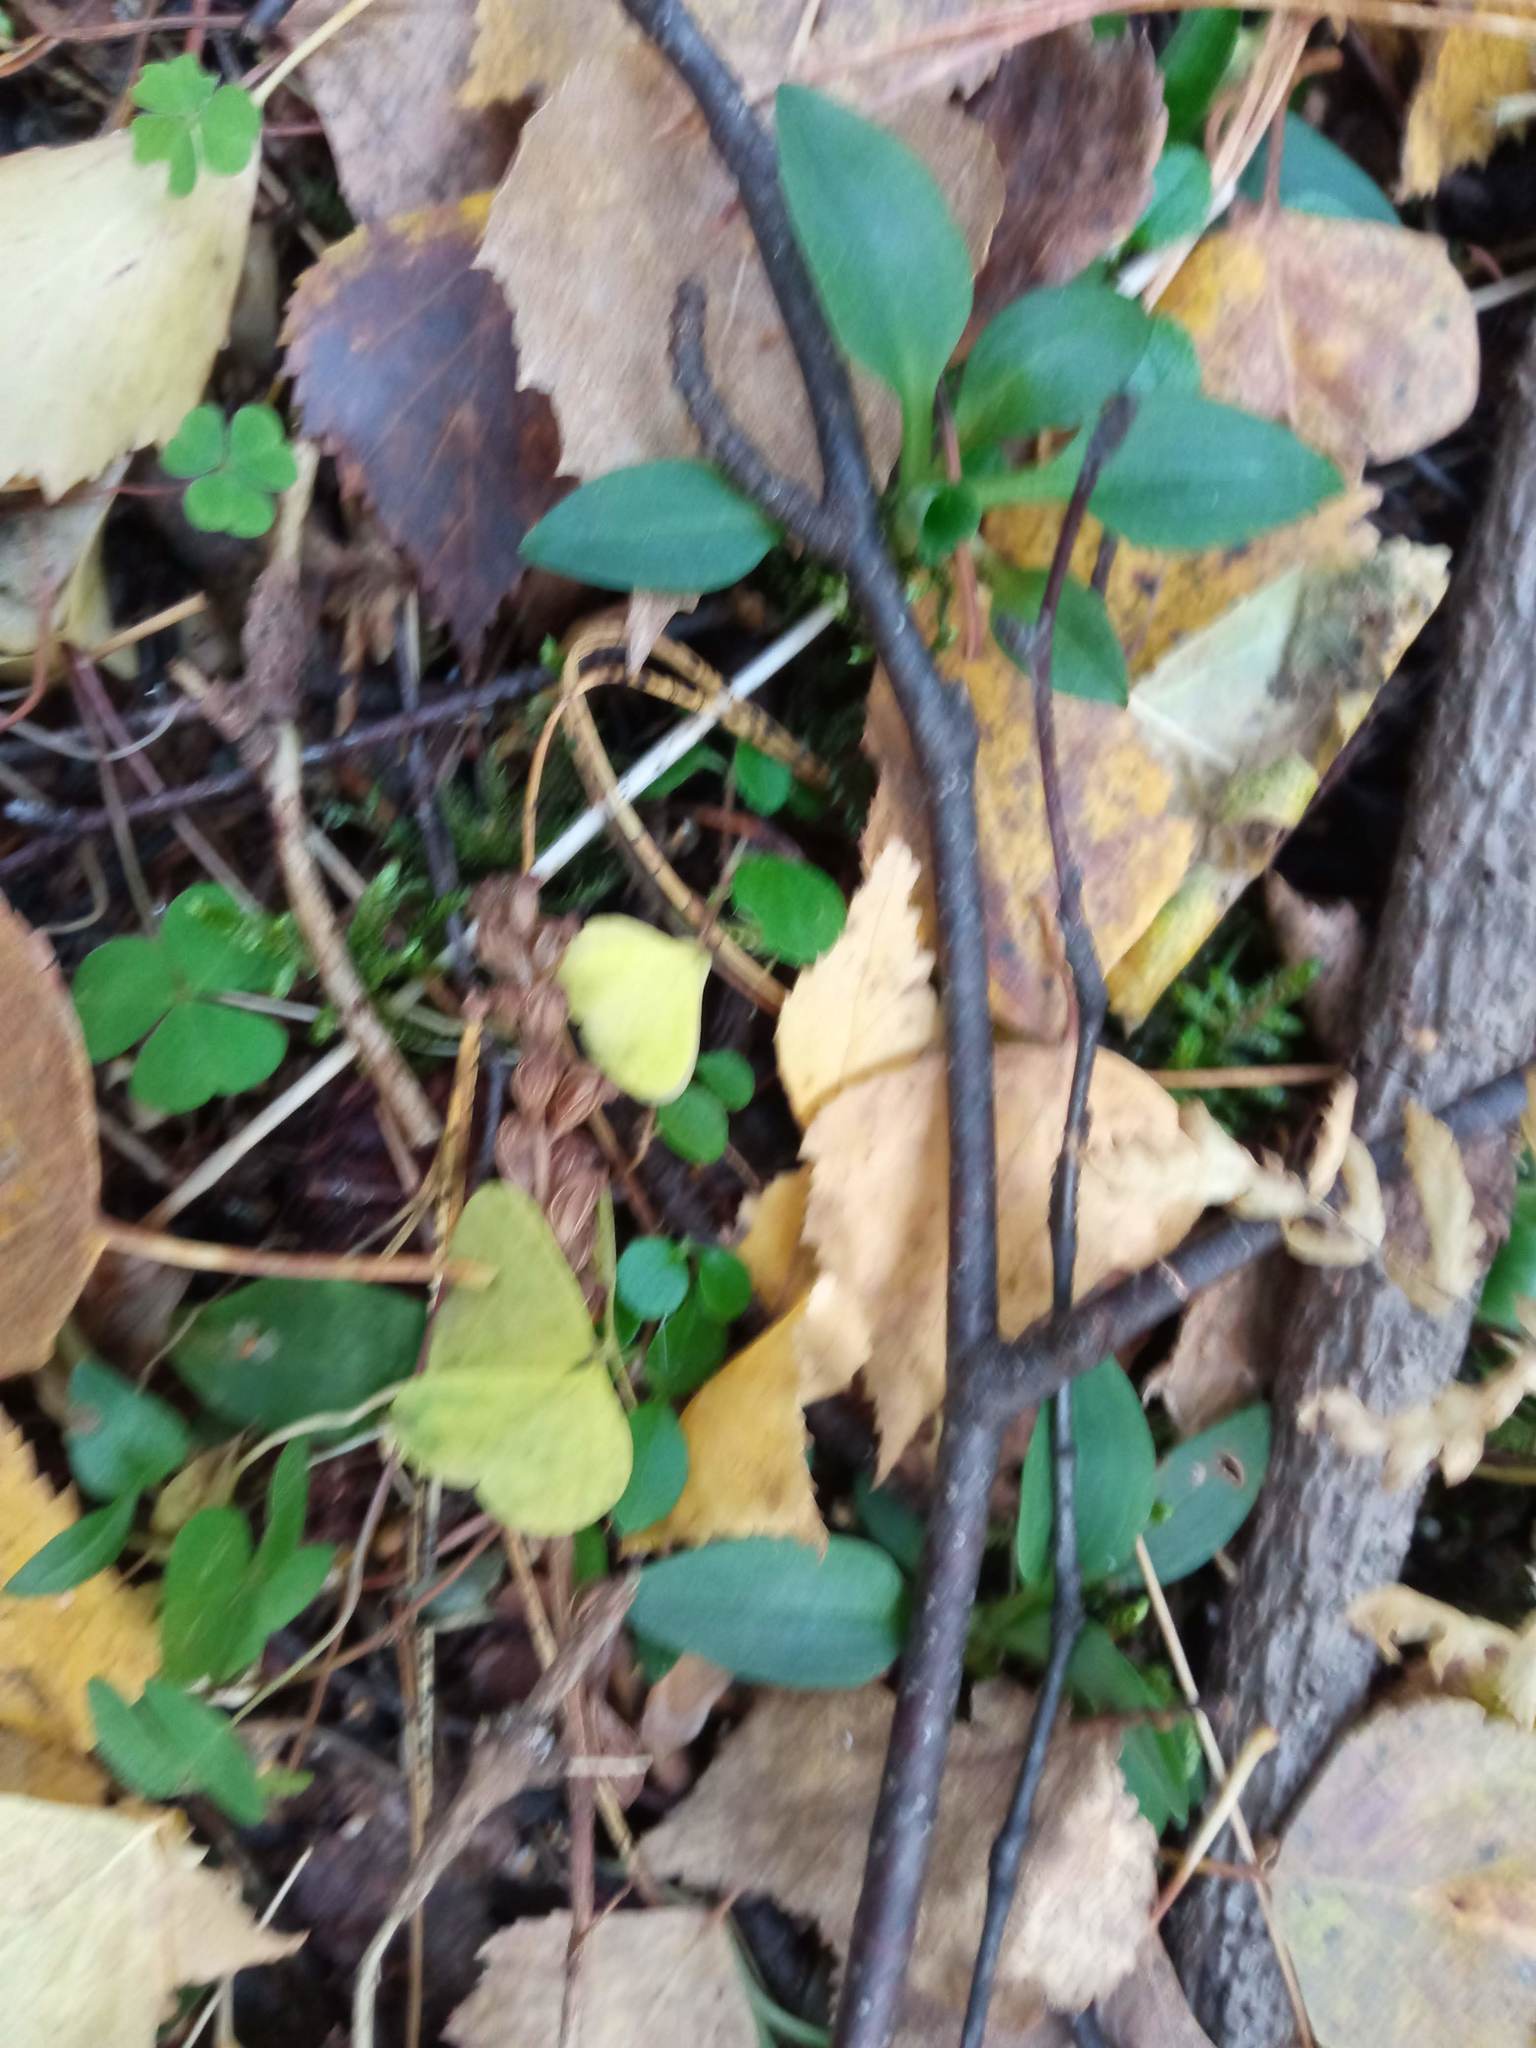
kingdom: Plantae
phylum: Tracheophyta
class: Liliopsida
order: Asparagales
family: Orchidaceae
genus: Goodyera
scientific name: Goodyera repens
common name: Creeping lady's-tresses
